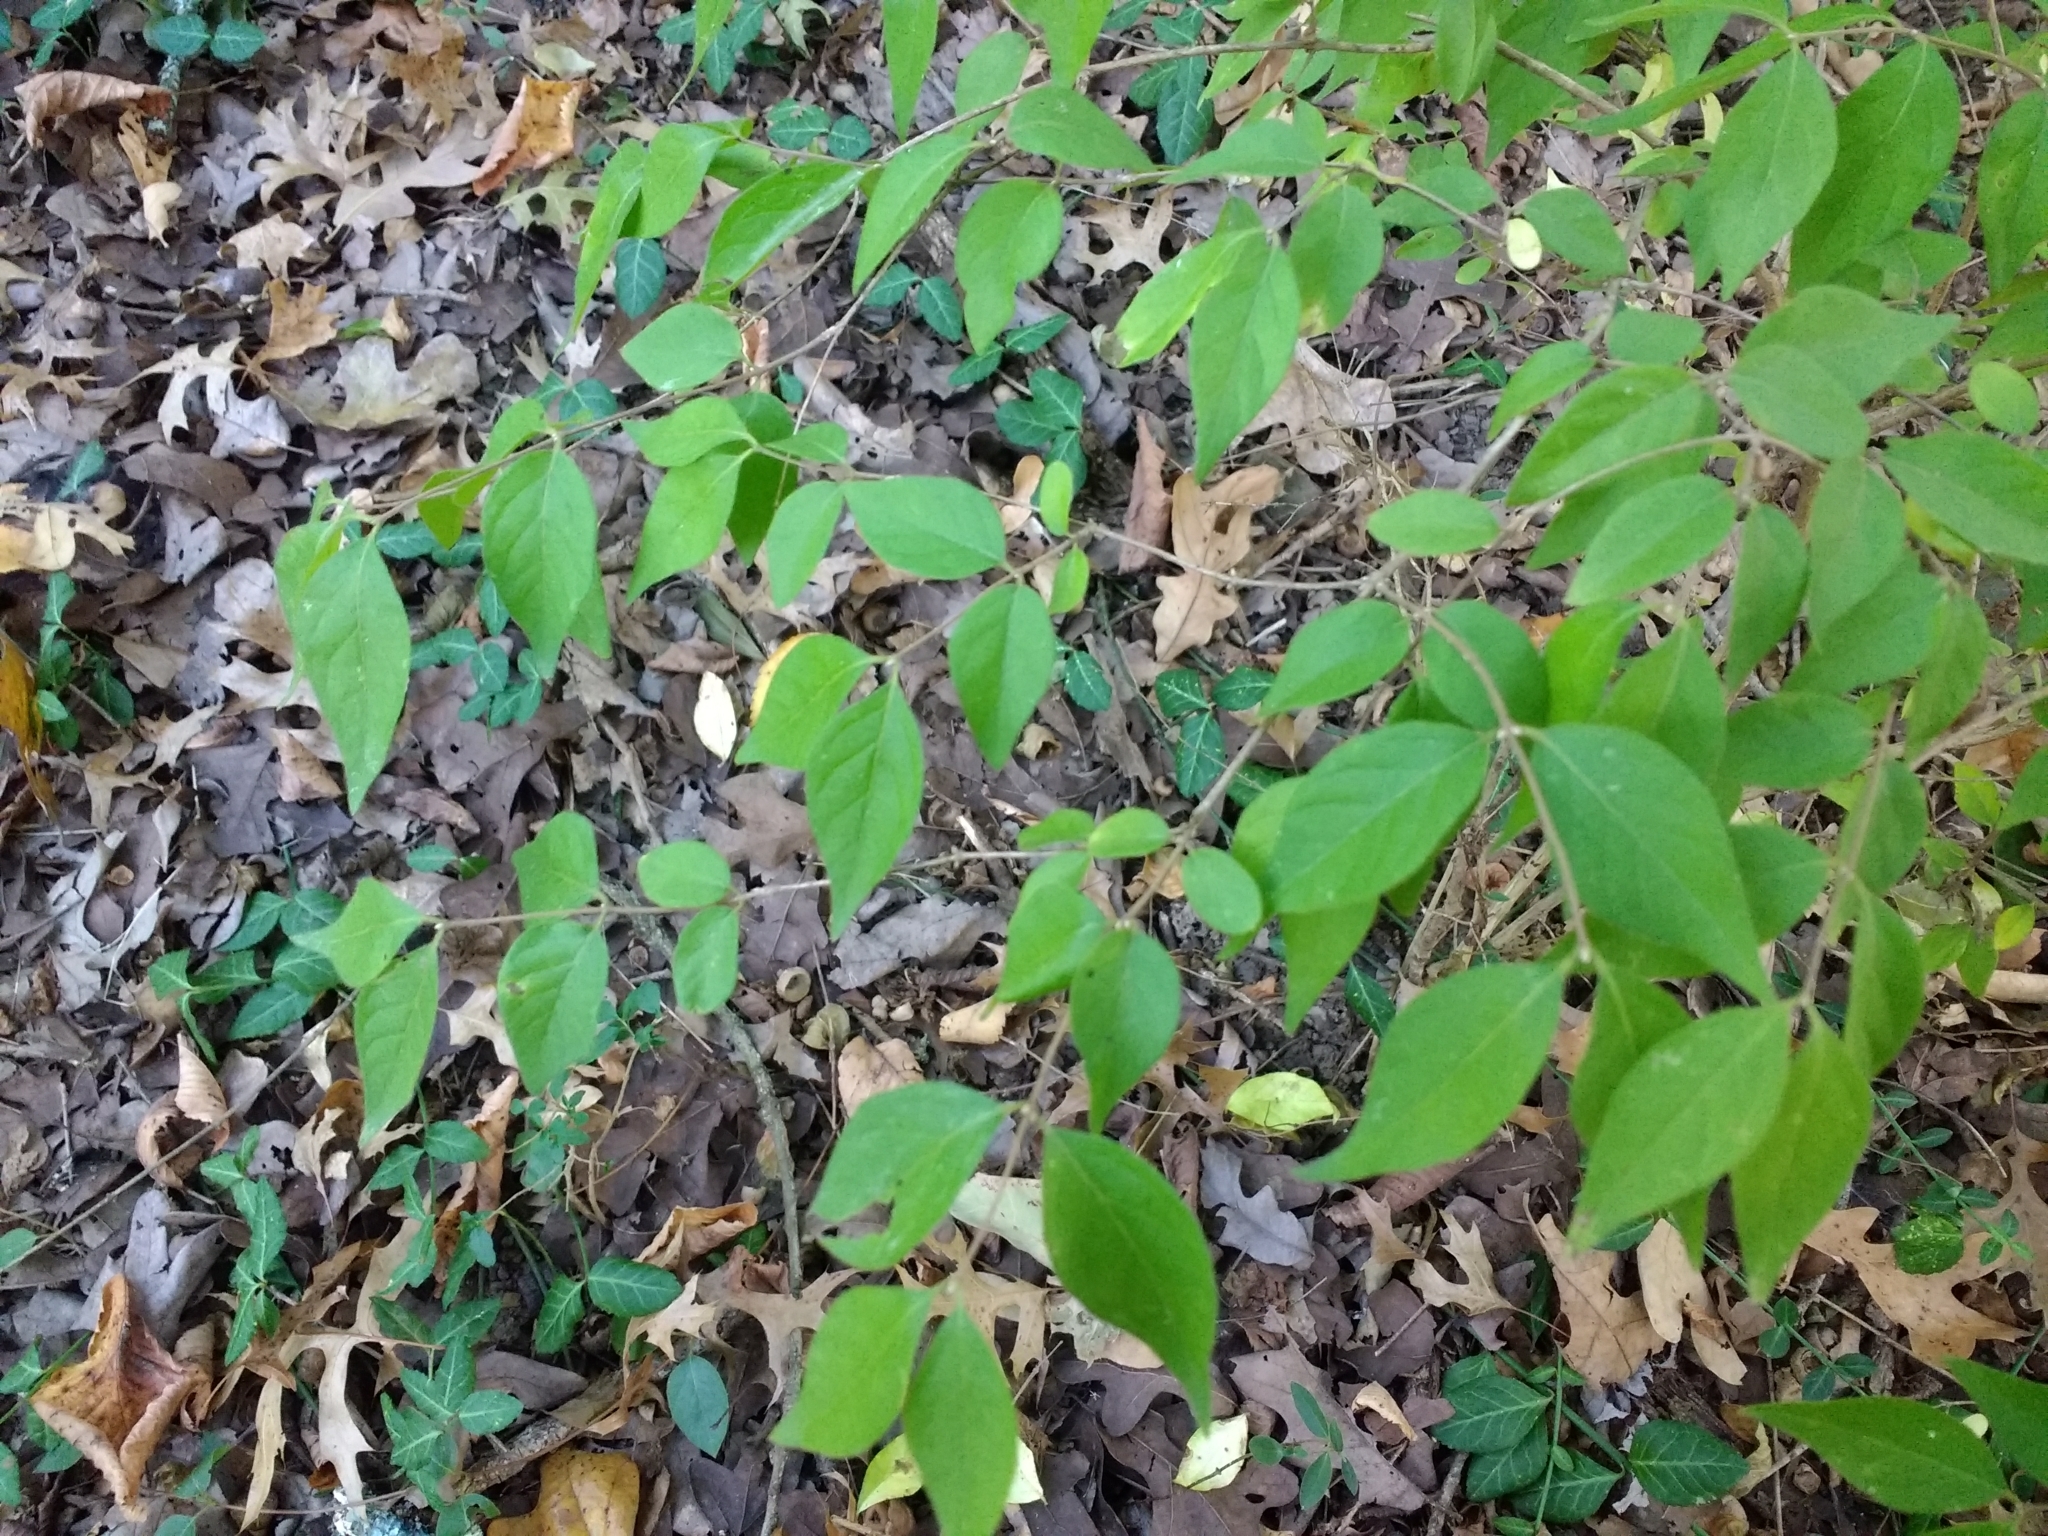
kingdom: Plantae
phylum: Tracheophyta
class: Magnoliopsida
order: Dipsacales
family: Caprifoliaceae
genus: Lonicera
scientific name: Lonicera maackii
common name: Amur honeysuckle
